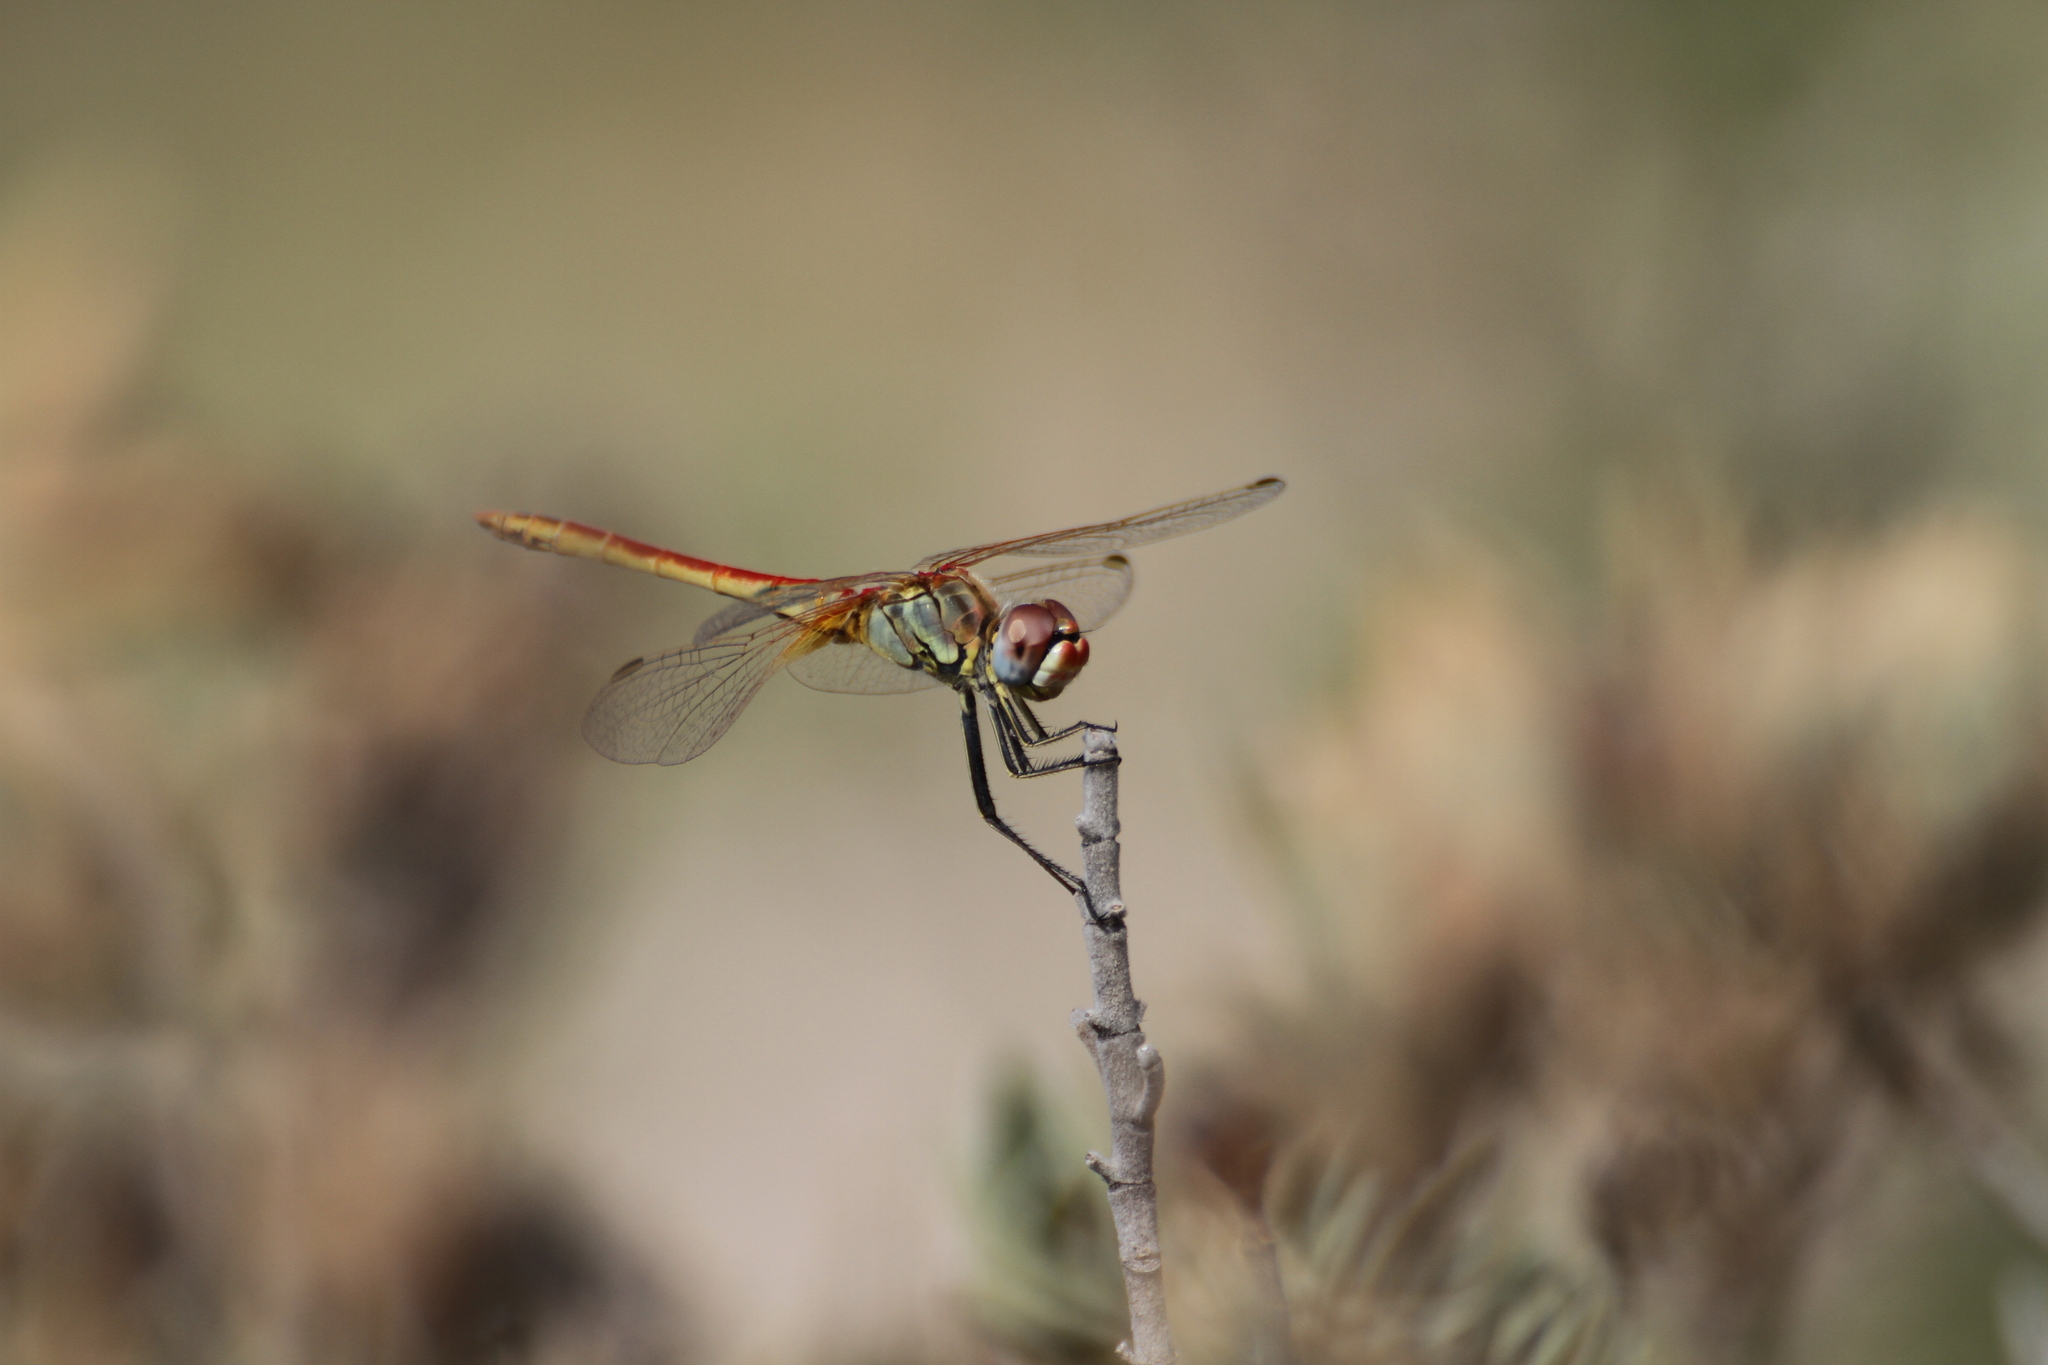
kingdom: Animalia
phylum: Arthropoda
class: Insecta
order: Odonata
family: Libellulidae
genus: Sympetrum
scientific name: Sympetrum fonscolombii
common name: Red-veined darter
